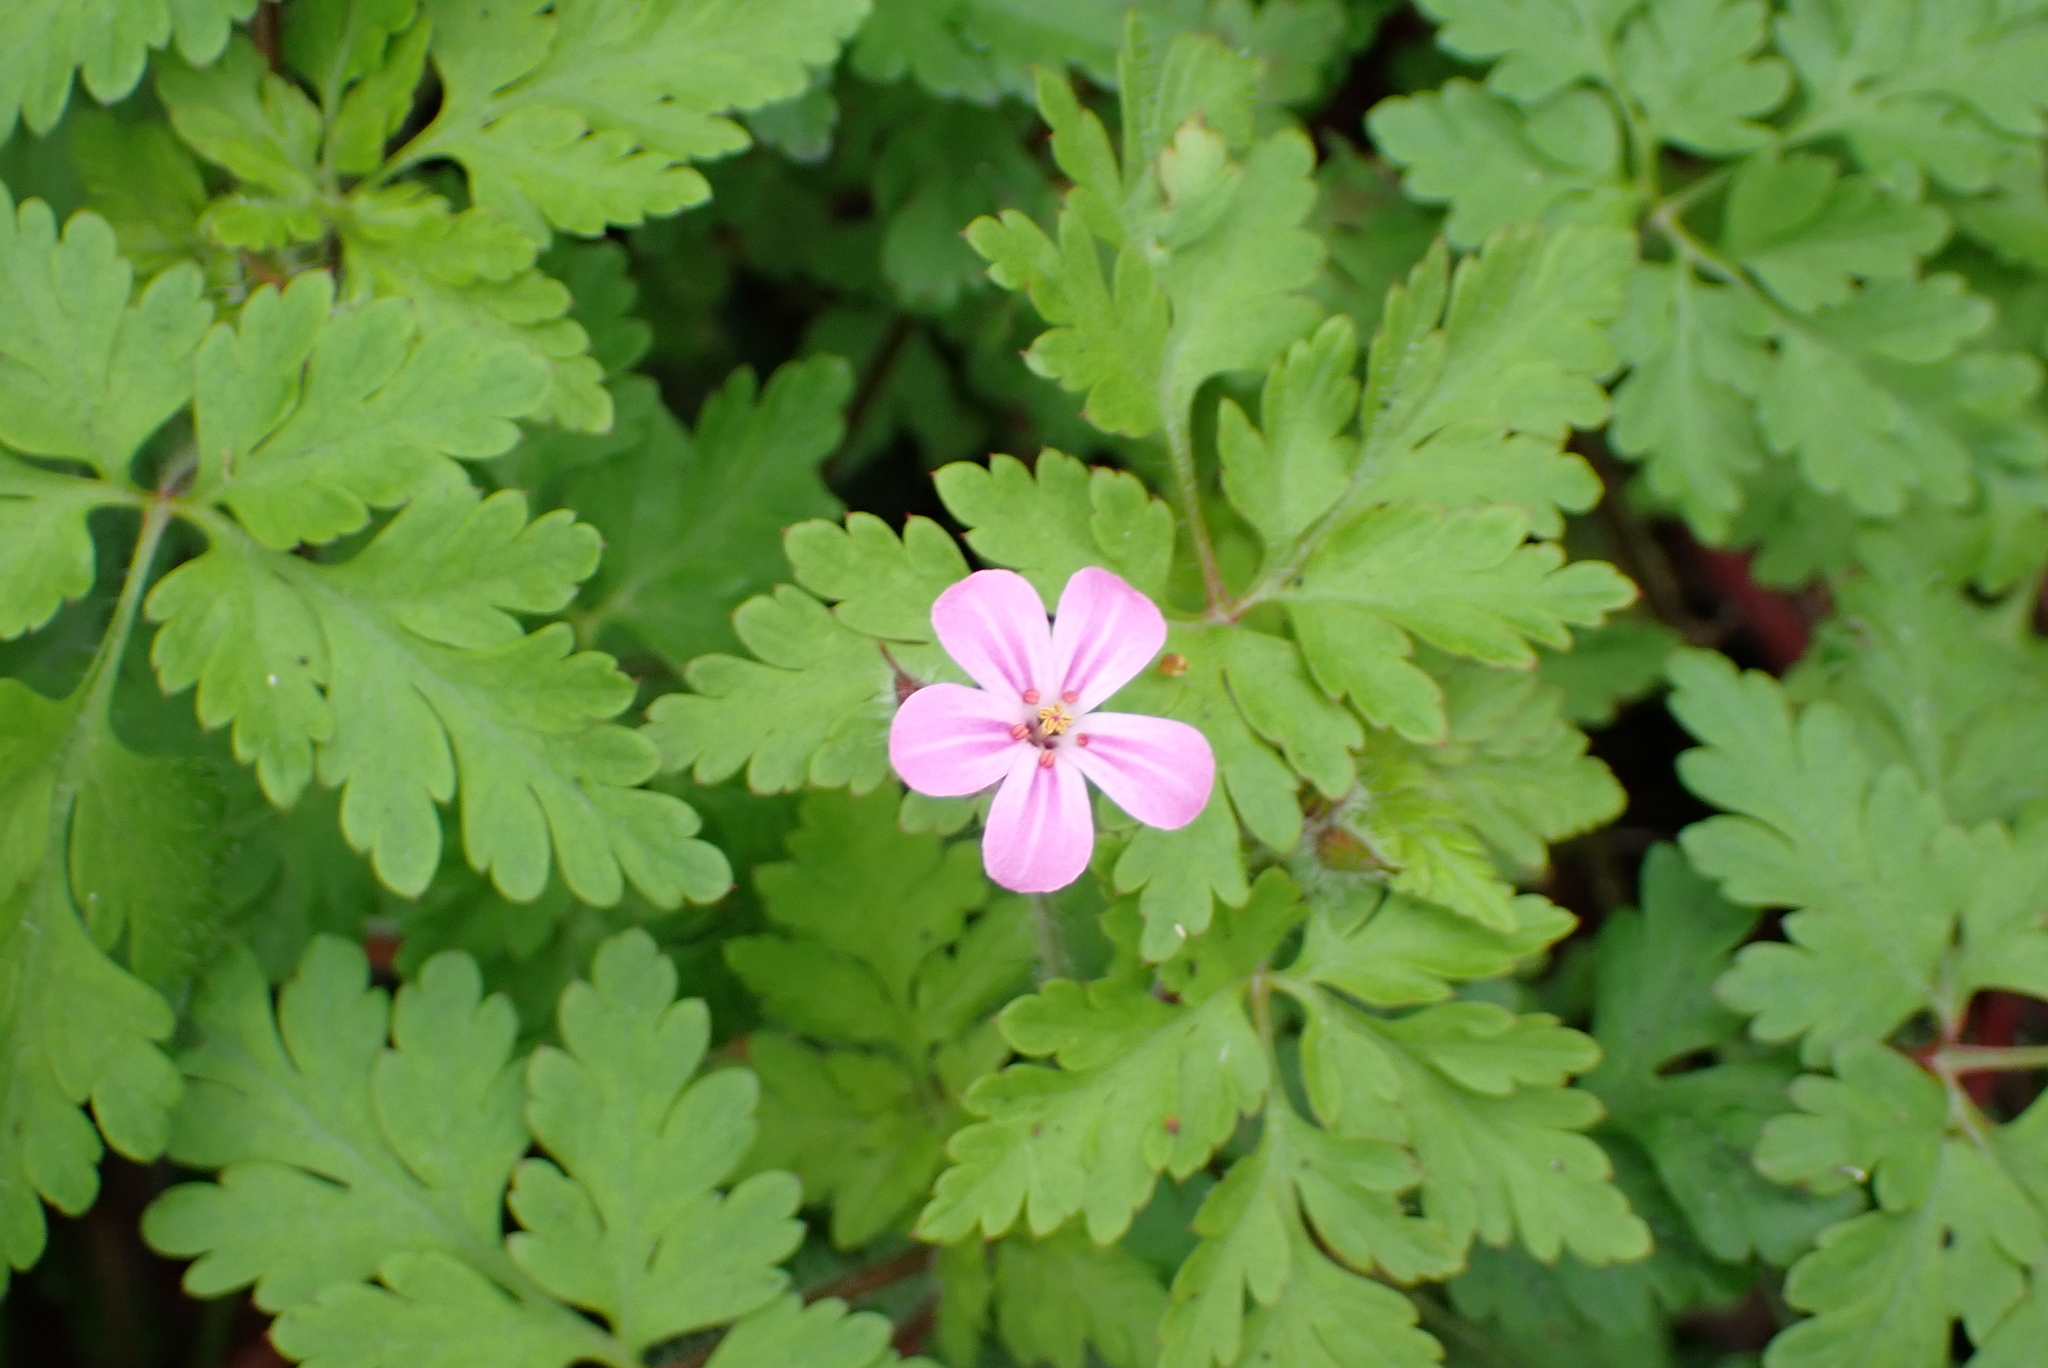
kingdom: Plantae
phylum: Tracheophyta
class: Magnoliopsida
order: Geraniales
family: Geraniaceae
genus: Geranium
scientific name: Geranium robertianum
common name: Herb-robert
